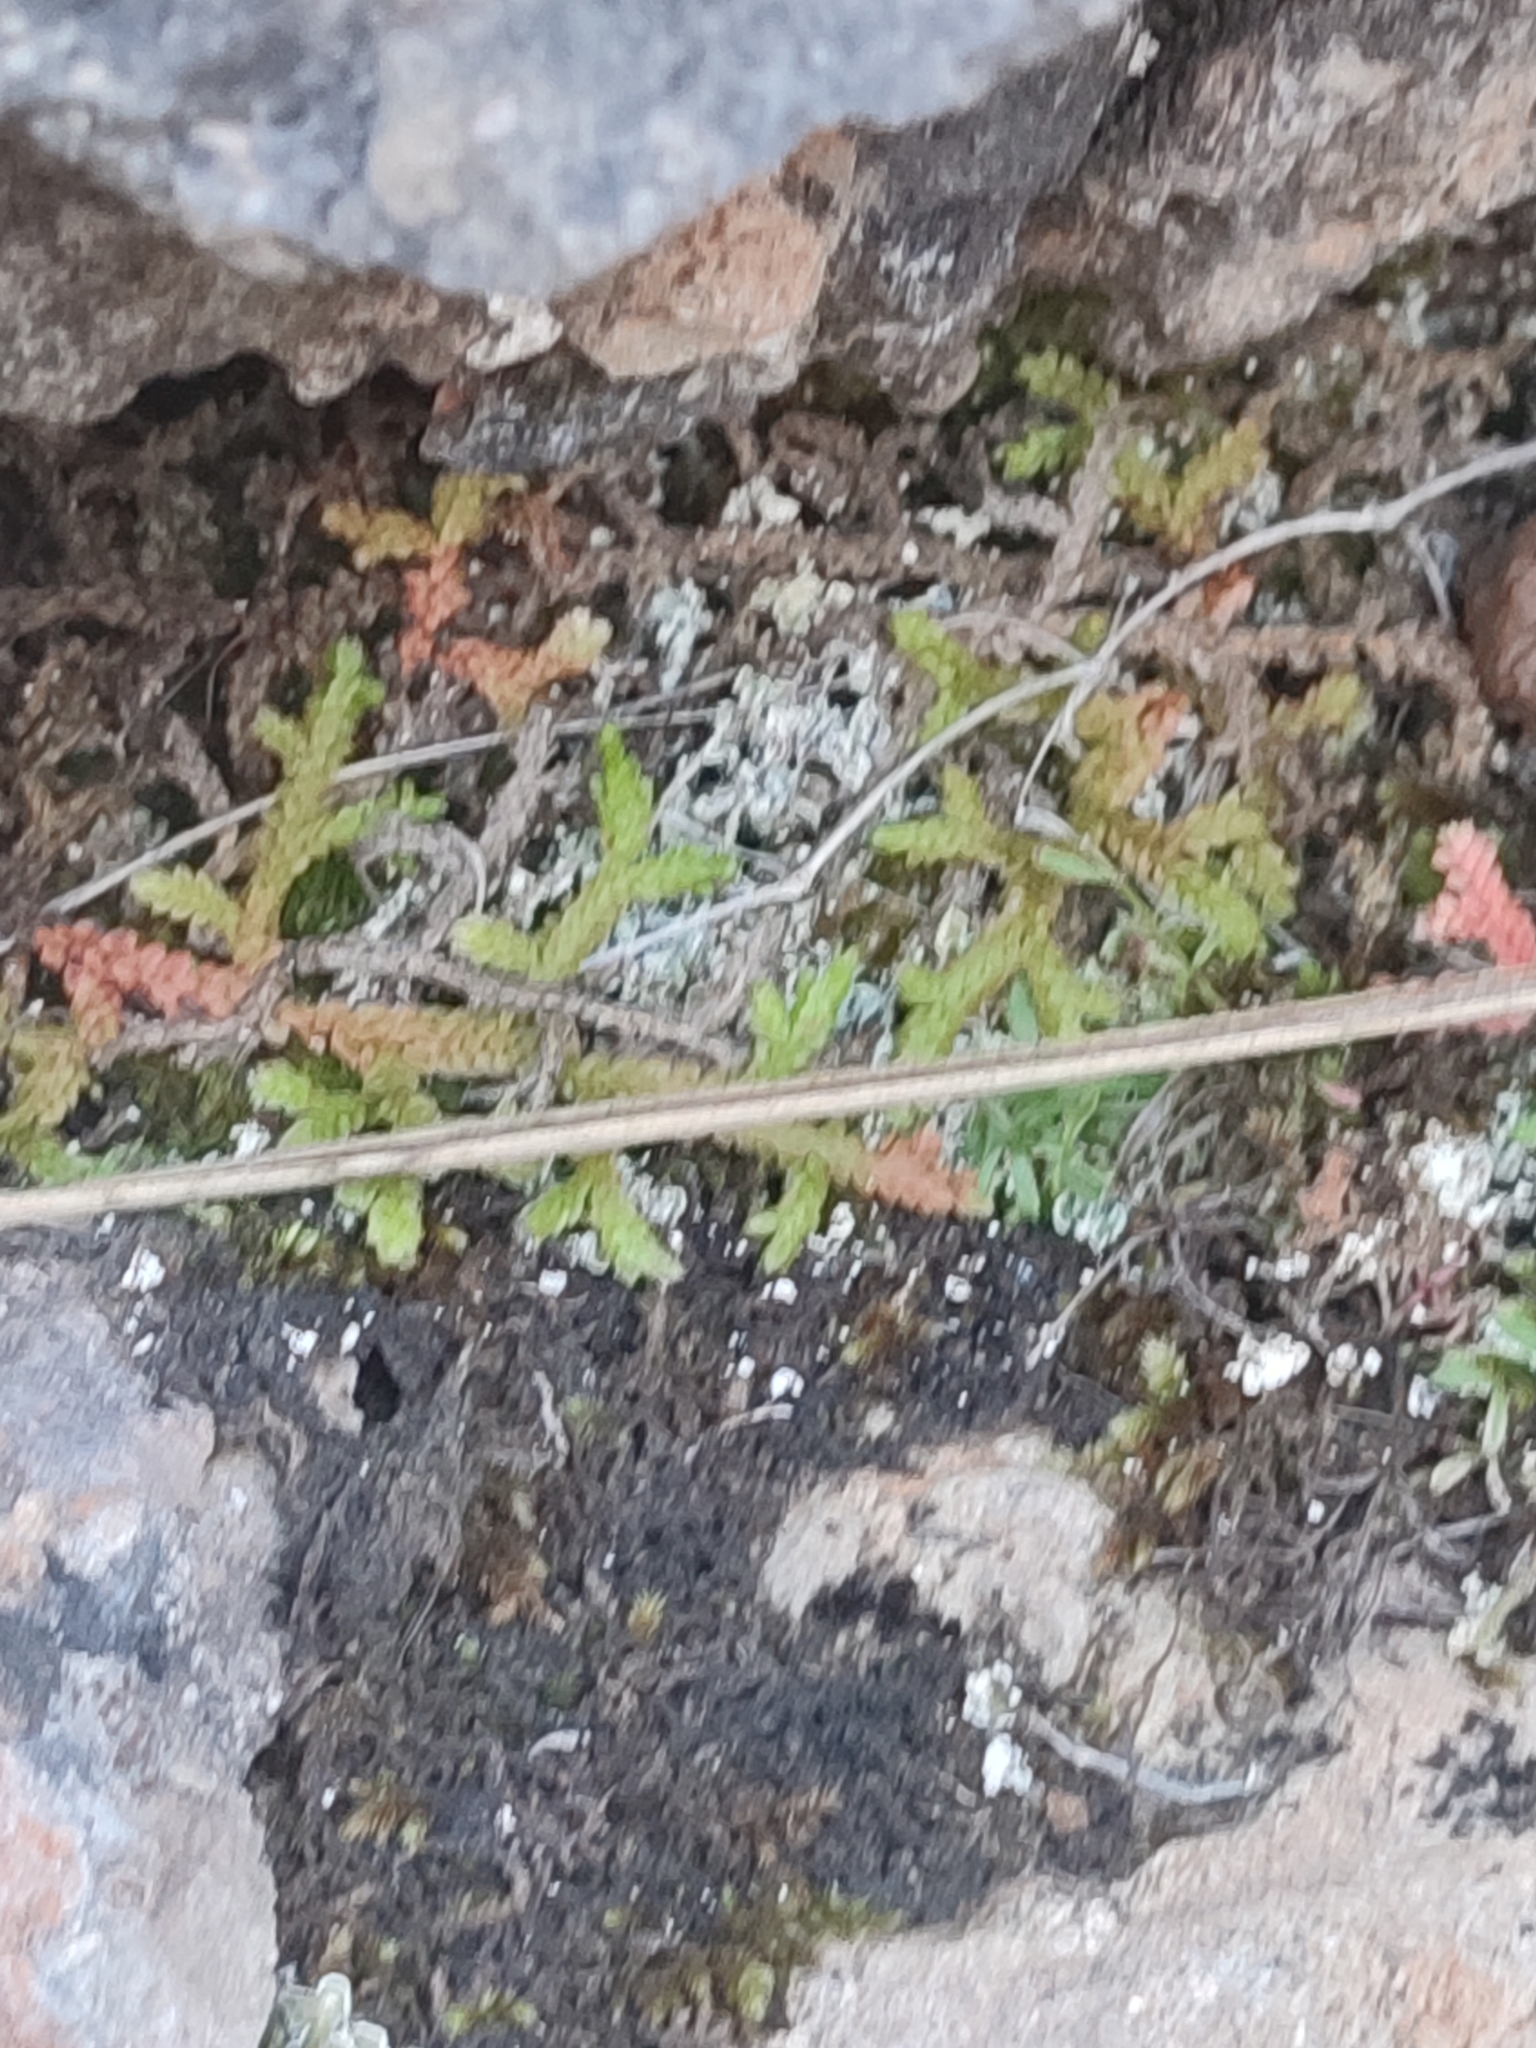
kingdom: Plantae
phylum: Tracheophyta
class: Lycopodiopsida
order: Selaginellales
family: Selaginellaceae
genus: Selaginella
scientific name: Selaginella denticulata
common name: Toothed-leaved clubmoss
